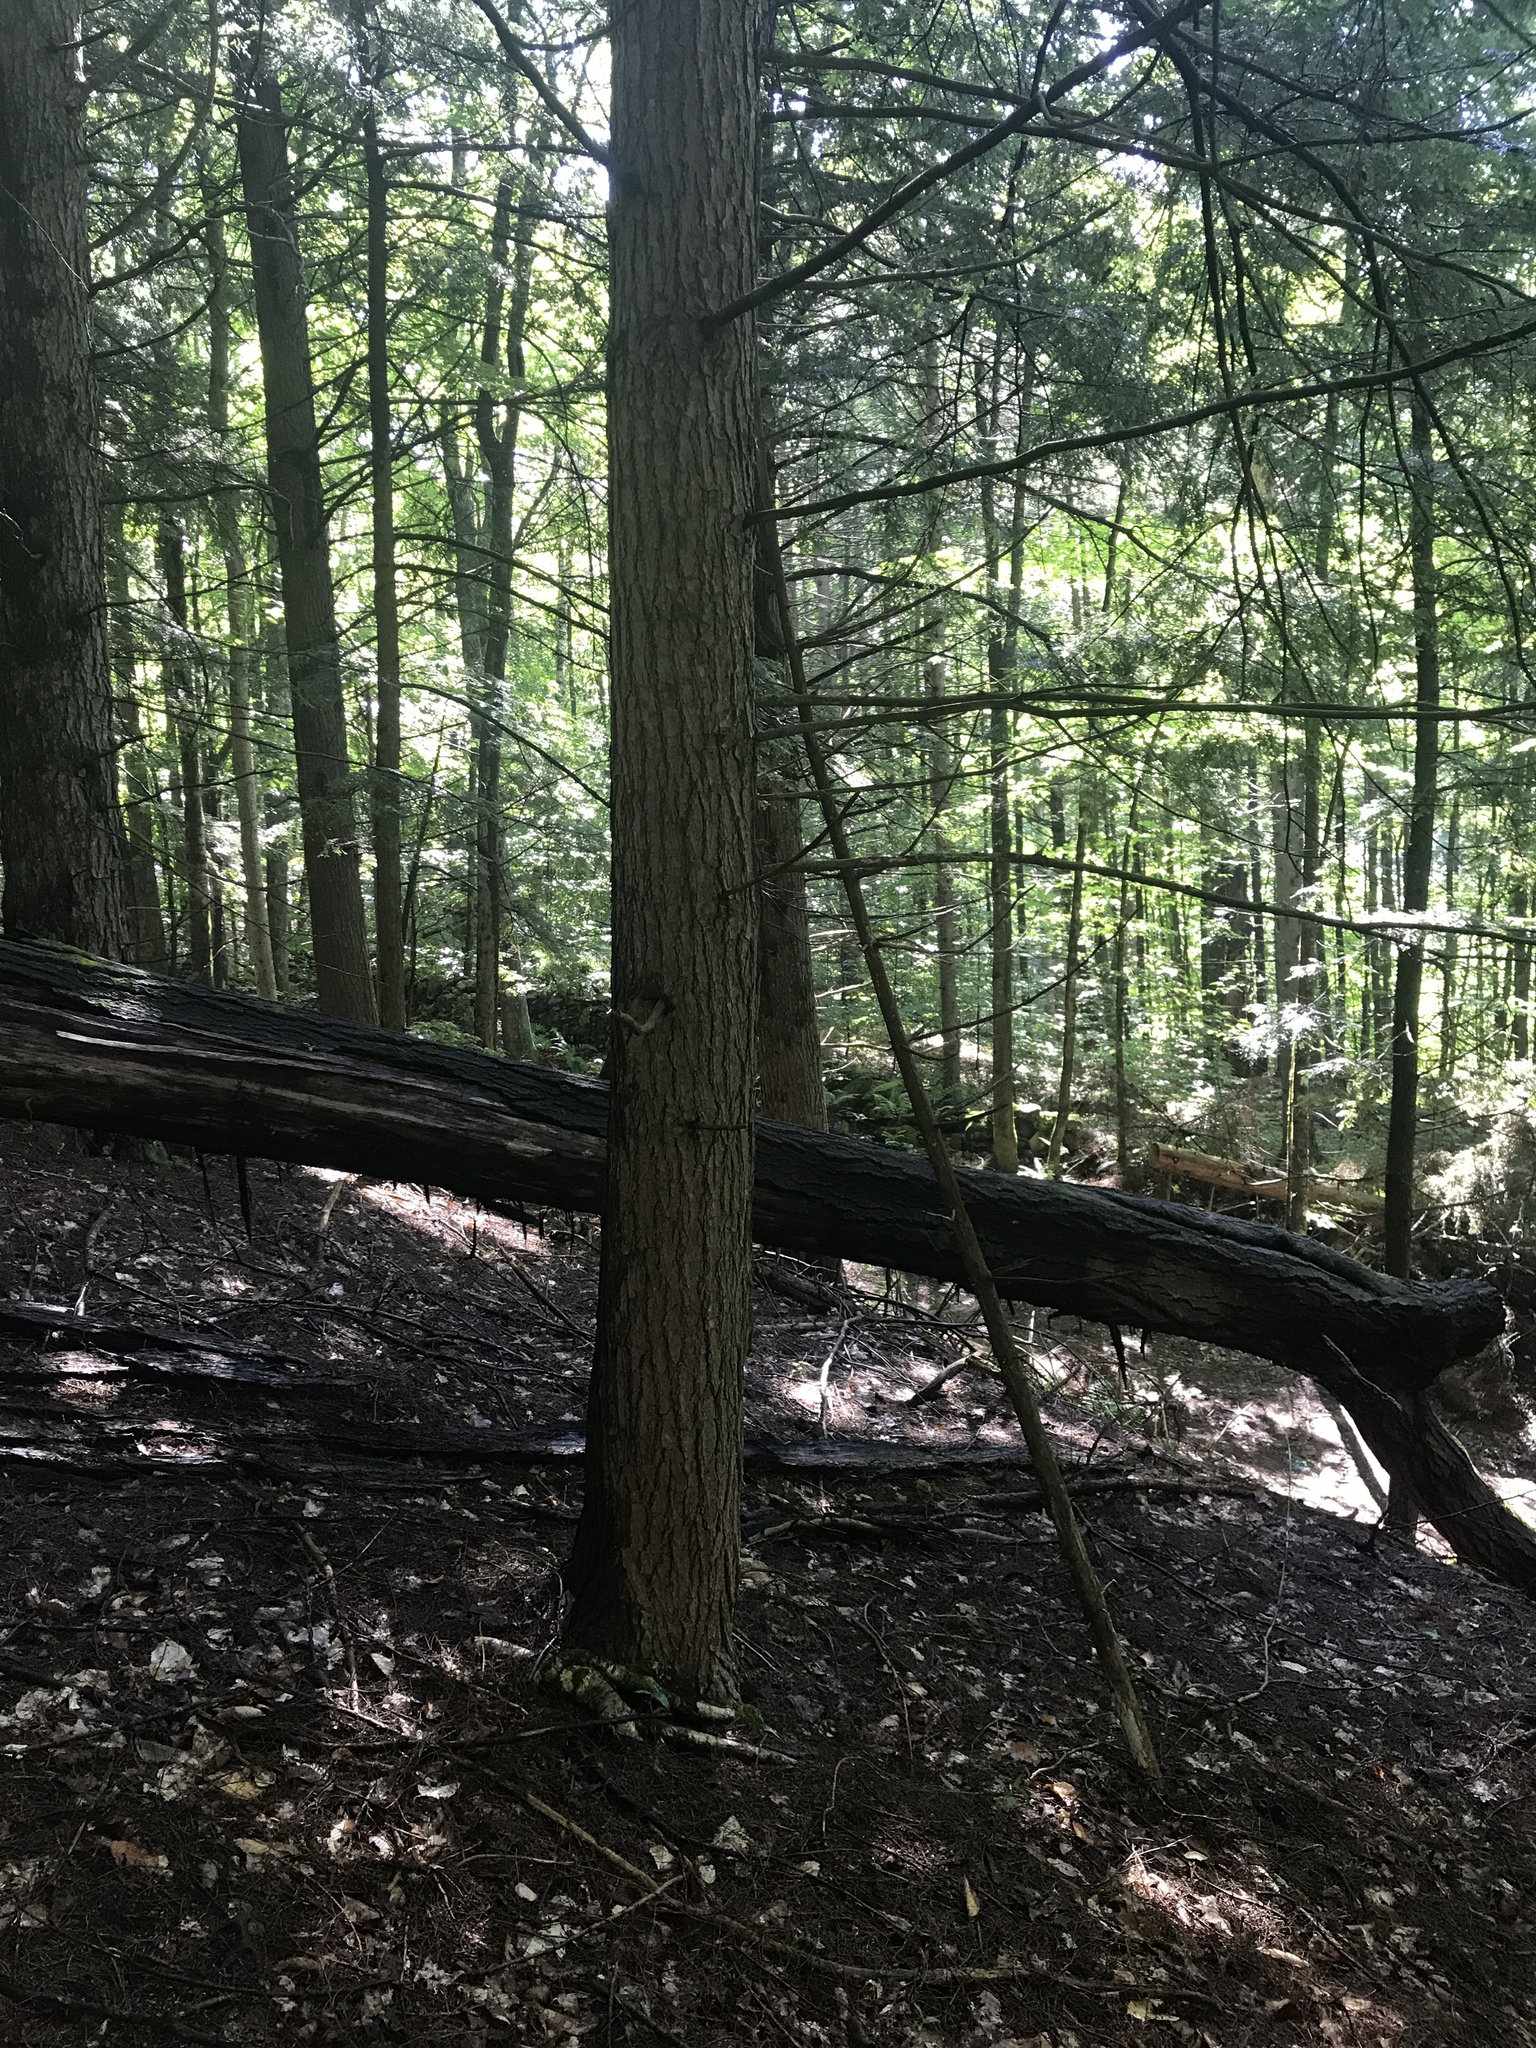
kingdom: Plantae
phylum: Tracheophyta
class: Pinopsida
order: Pinales
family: Pinaceae
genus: Tsuga
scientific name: Tsuga canadensis
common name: Eastern hemlock
